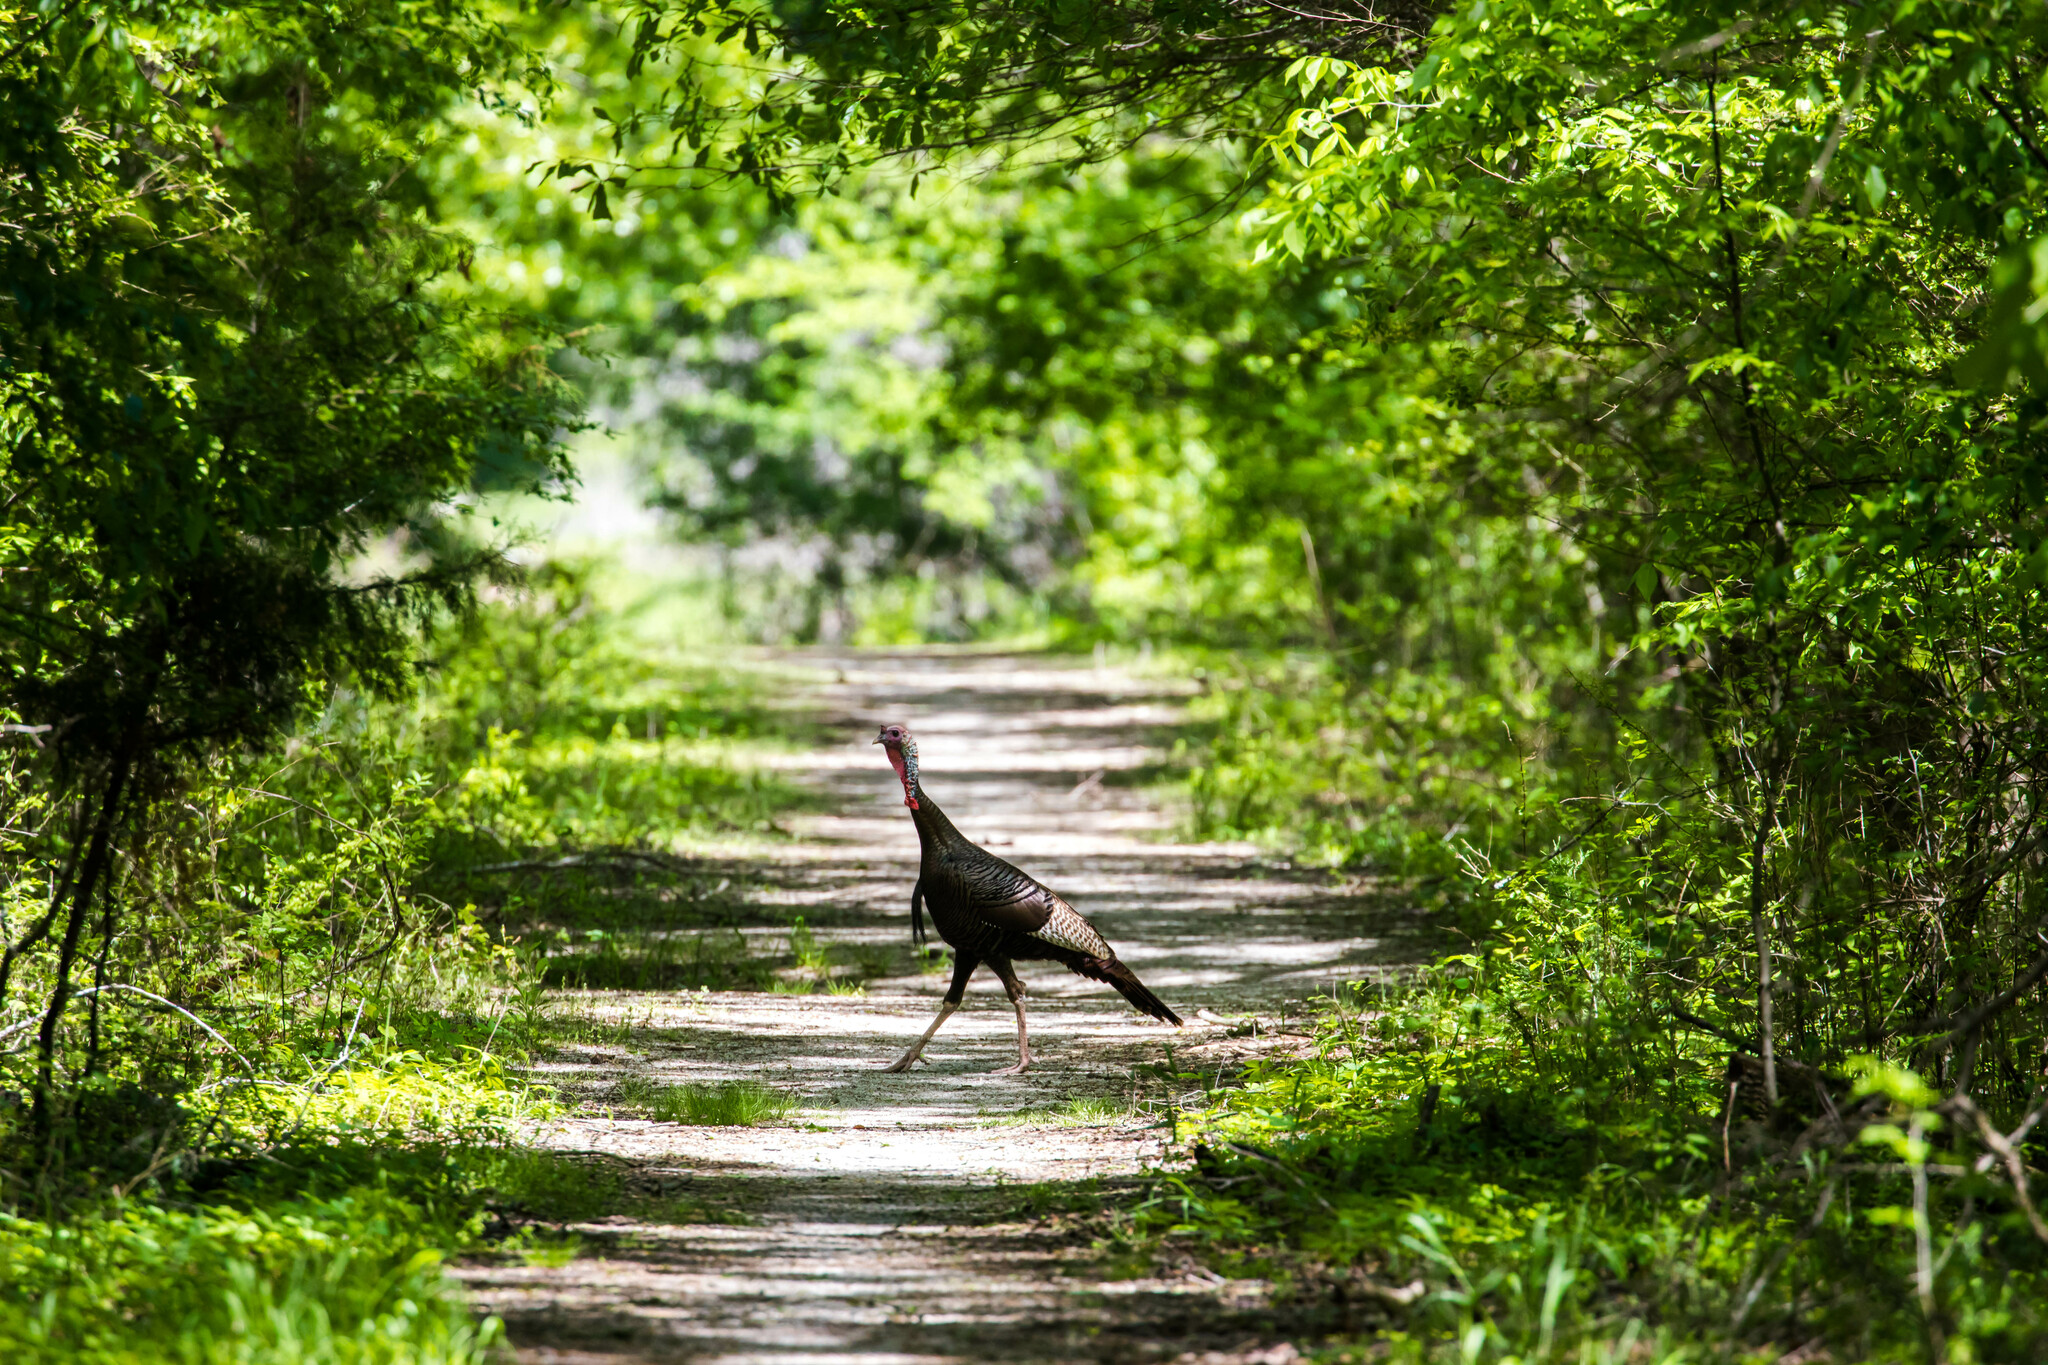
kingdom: Animalia
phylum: Chordata
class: Aves
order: Galliformes
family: Phasianidae
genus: Meleagris
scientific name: Meleagris gallopavo
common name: Wild turkey
